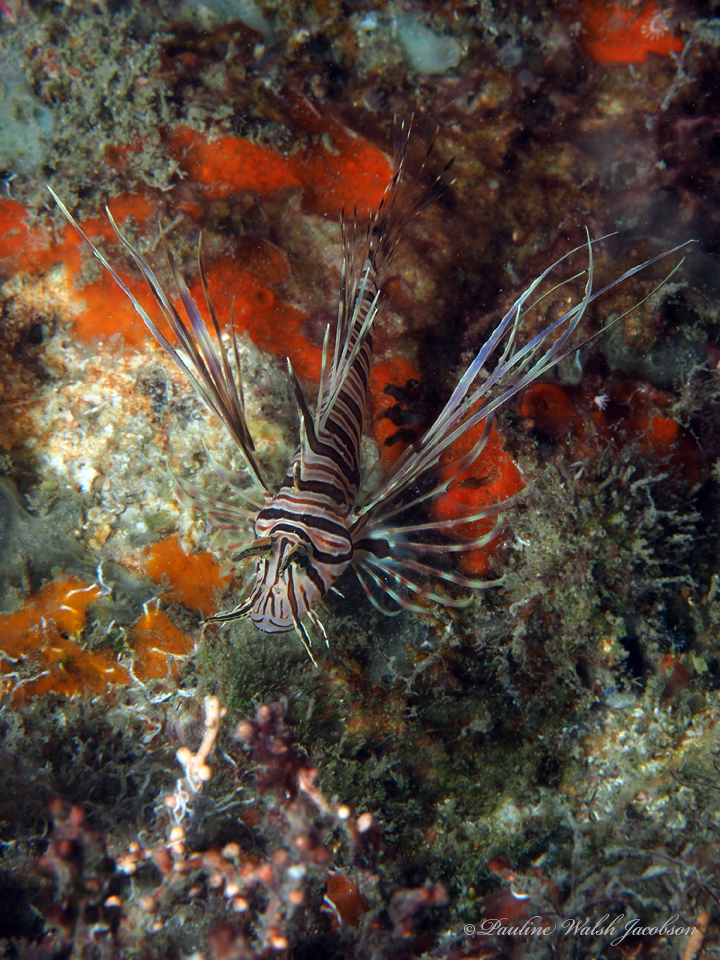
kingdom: Animalia
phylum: Chordata
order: Scorpaeniformes
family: Scorpaenidae
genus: Pterois
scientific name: Pterois volitans
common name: Lionfish
